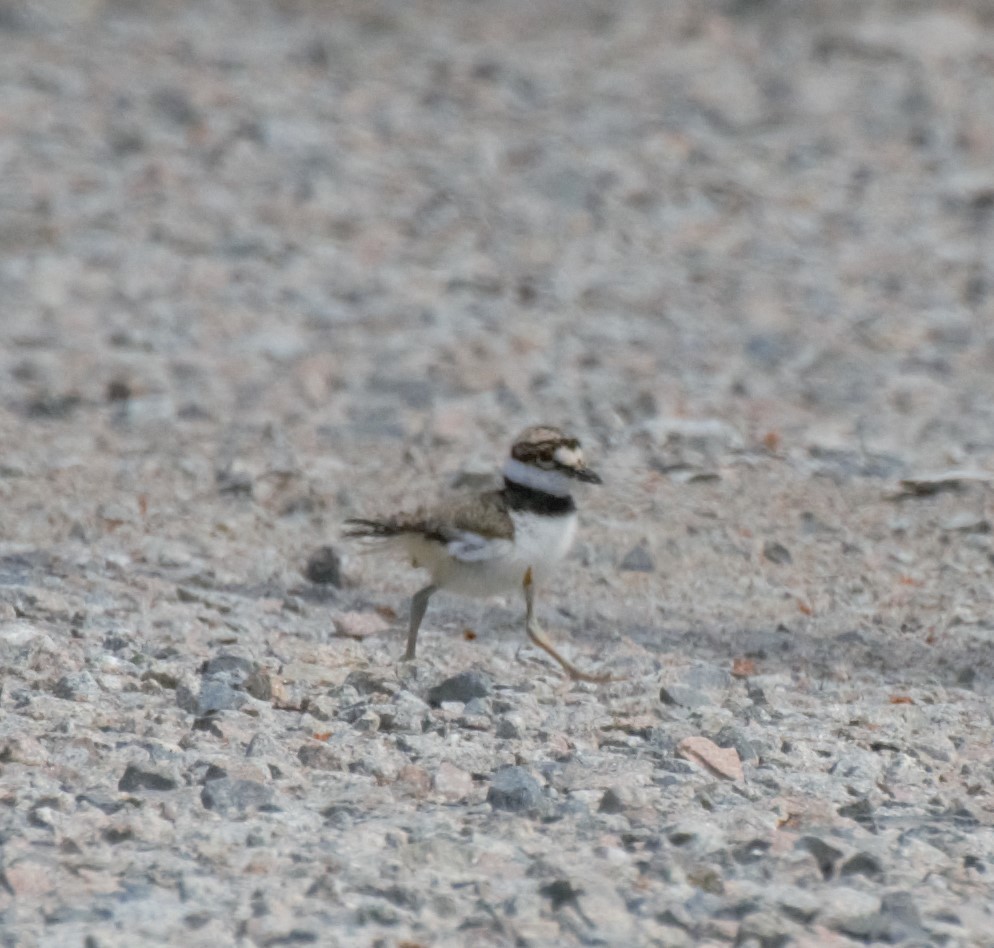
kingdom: Animalia
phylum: Chordata
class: Aves
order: Charadriiformes
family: Charadriidae
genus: Charadrius
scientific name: Charadrius vociferus
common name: Killdeer
